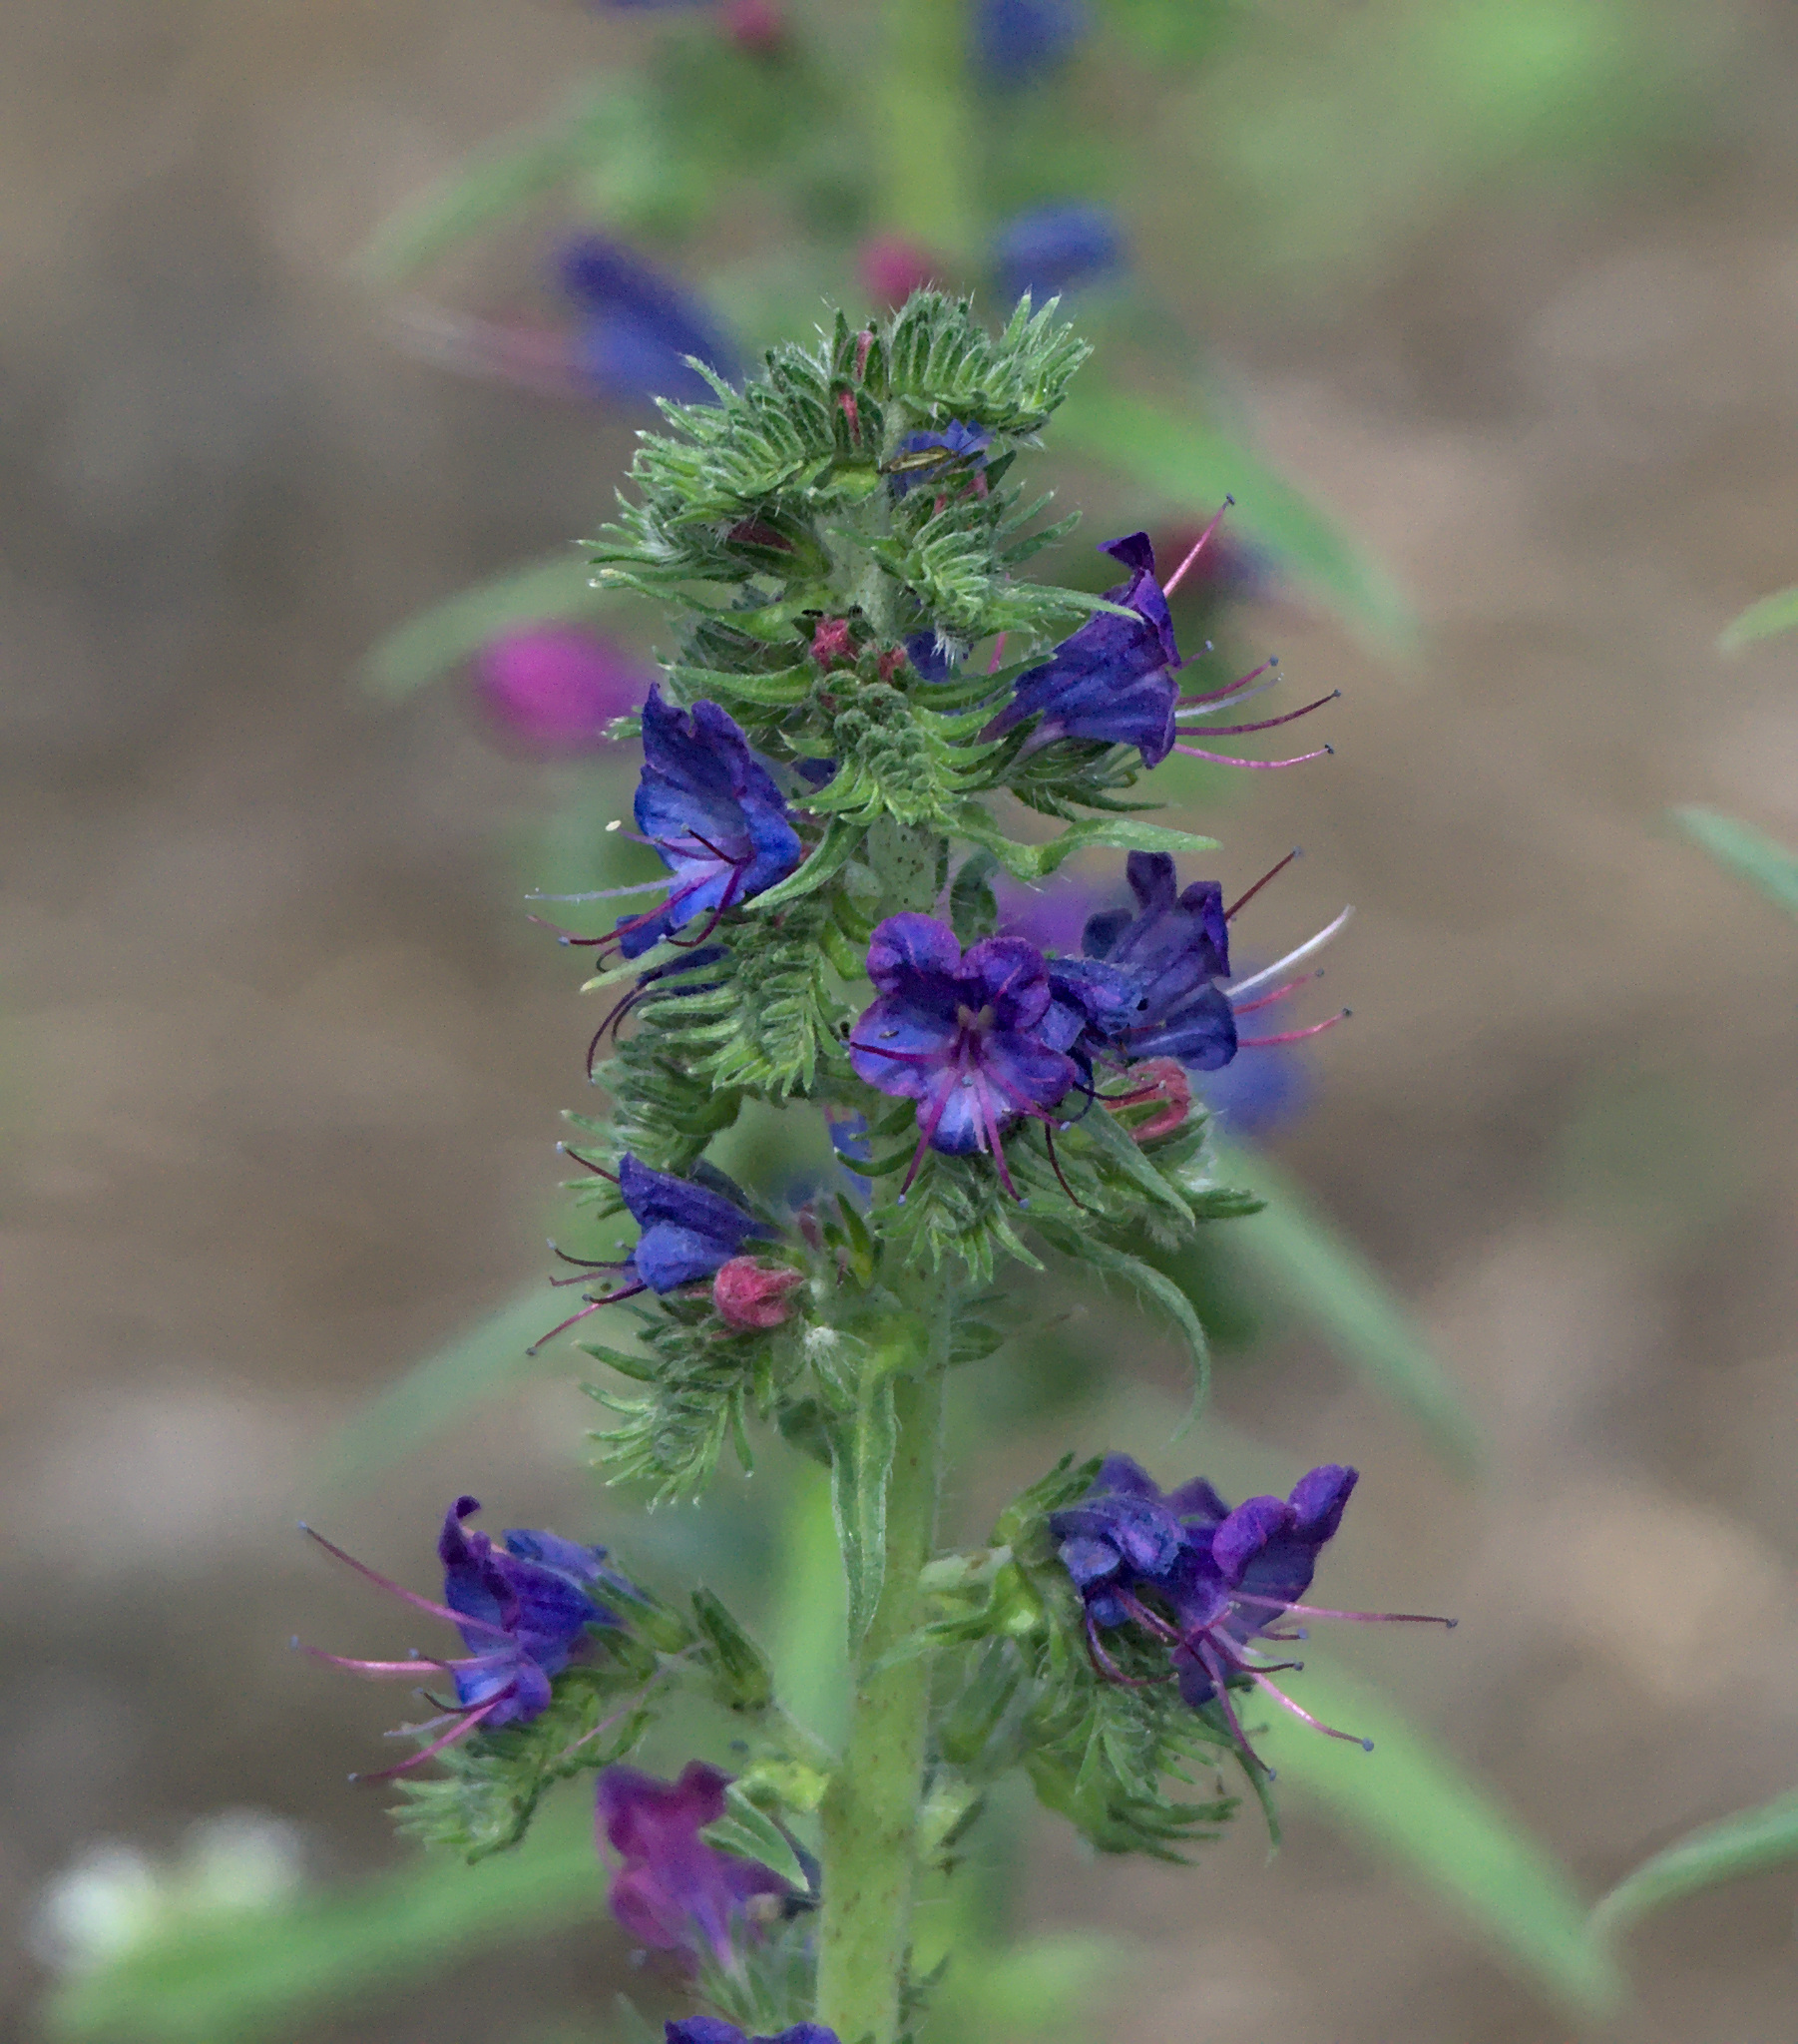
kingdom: Plantae
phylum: Tracheophyta
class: Magnoliopsida
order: Boraginales
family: Boraginaceae
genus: Echium
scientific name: Echium vulgare
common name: Common viper's bugloss
